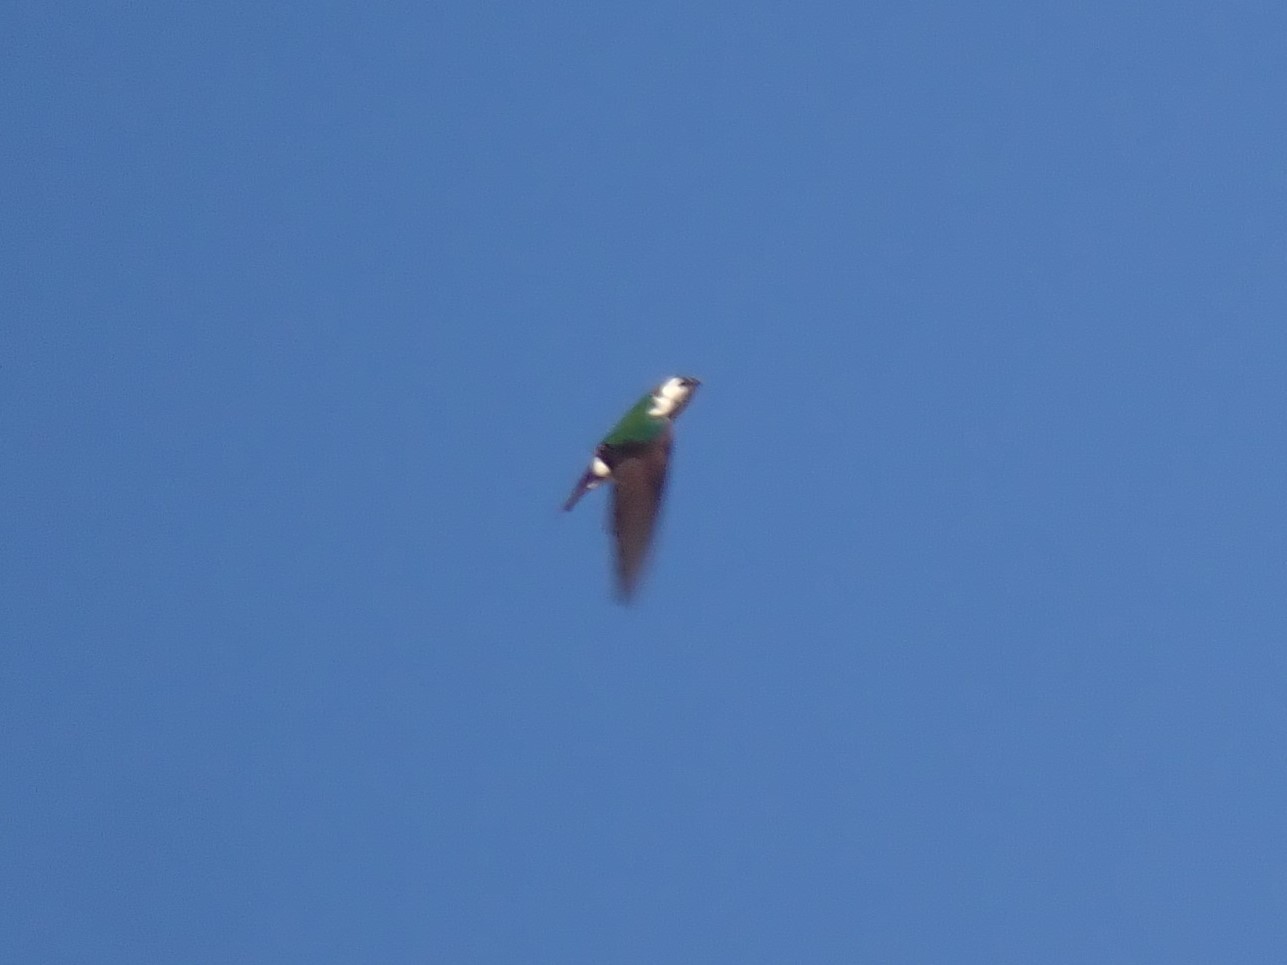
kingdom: Animalia
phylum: Chordata
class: Aves
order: Passeriformes
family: Hirundinidae
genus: Tachycineta
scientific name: Tachycineta thalassina
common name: Violet-green swallow
